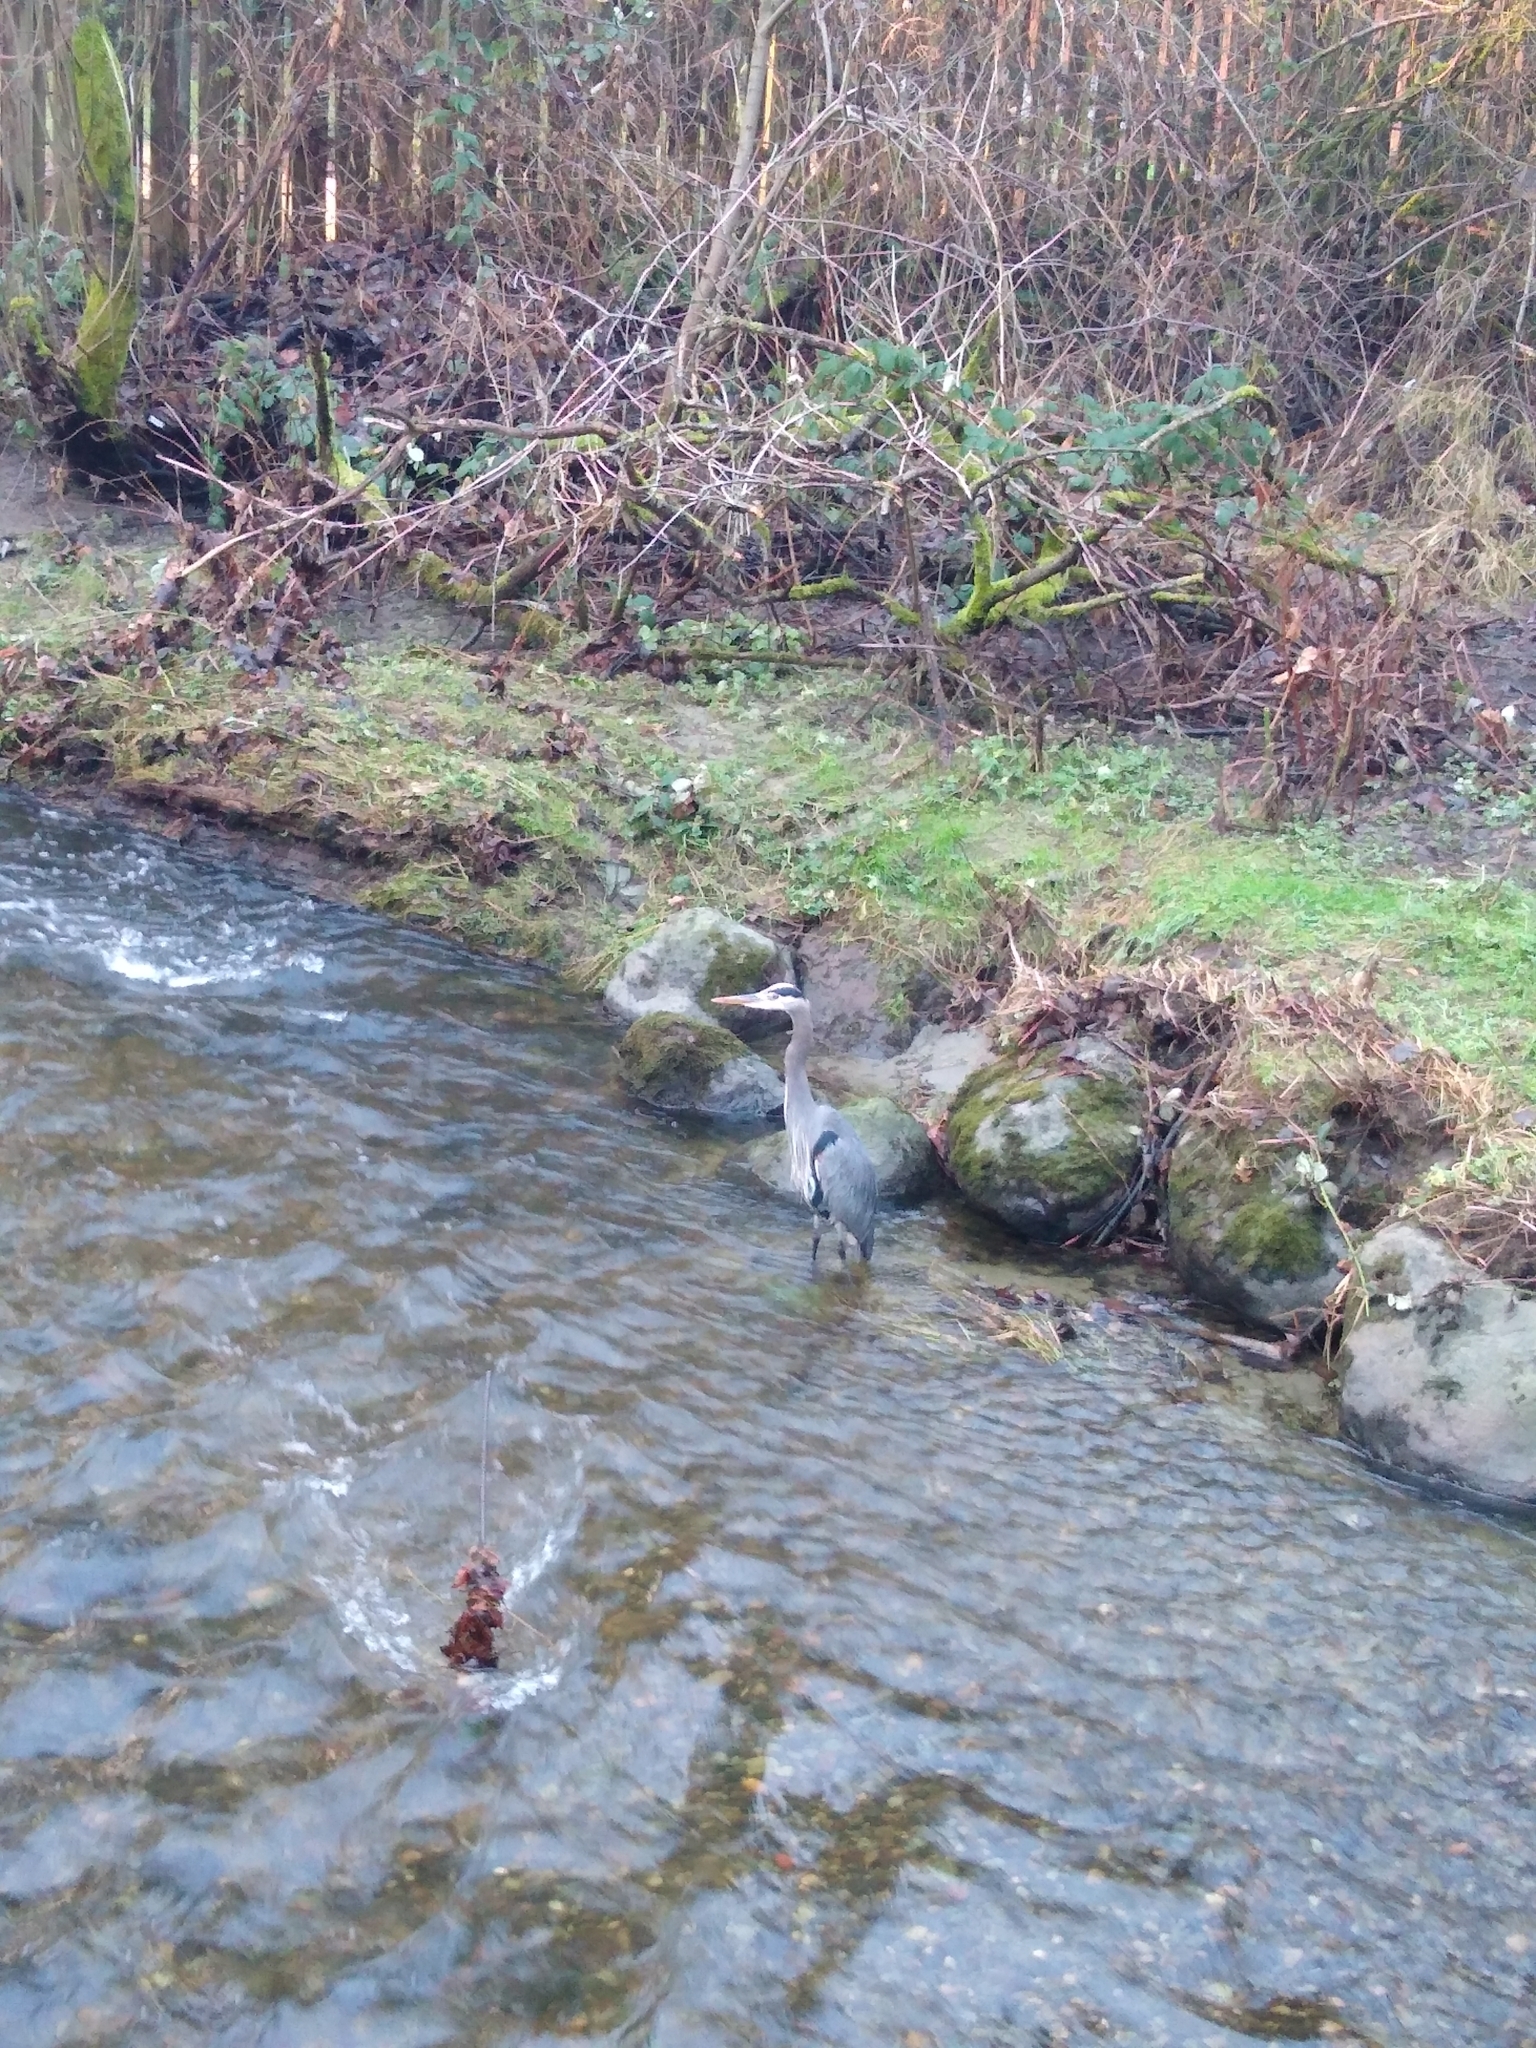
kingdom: Animalia
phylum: Chordata
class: Aves
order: Pelecaniformes
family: Ardeidae
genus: Ardea
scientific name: Ardea herodias
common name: Great blue heron
